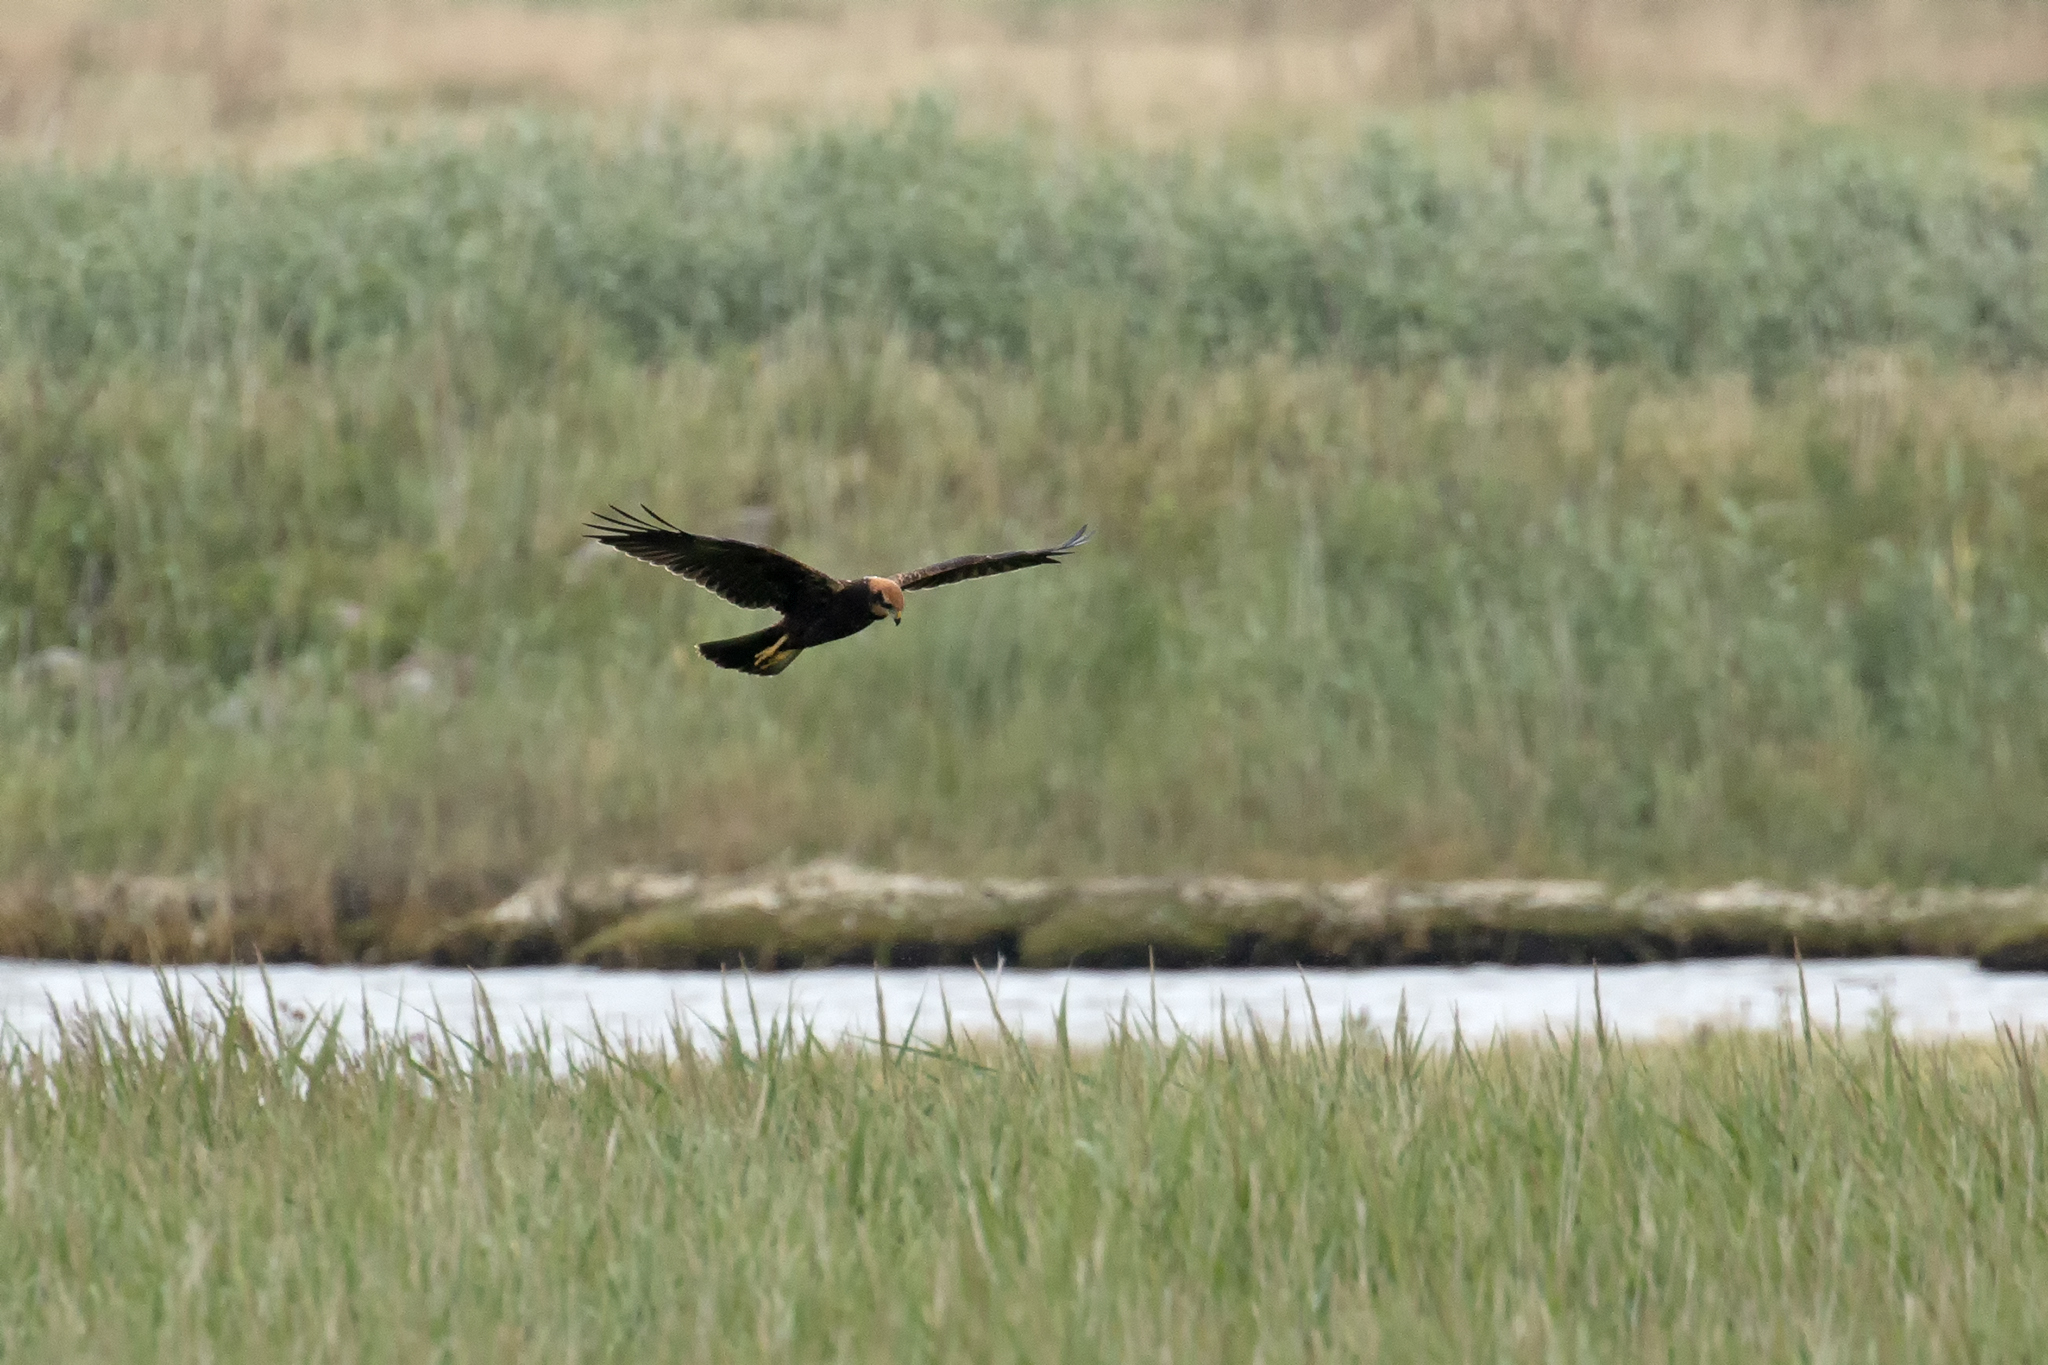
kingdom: Animalia
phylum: Chordata
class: Aves
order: Accipitriformes
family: Accipitridae
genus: Circus
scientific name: Circus aeruginosus
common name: Western marsh harrier
